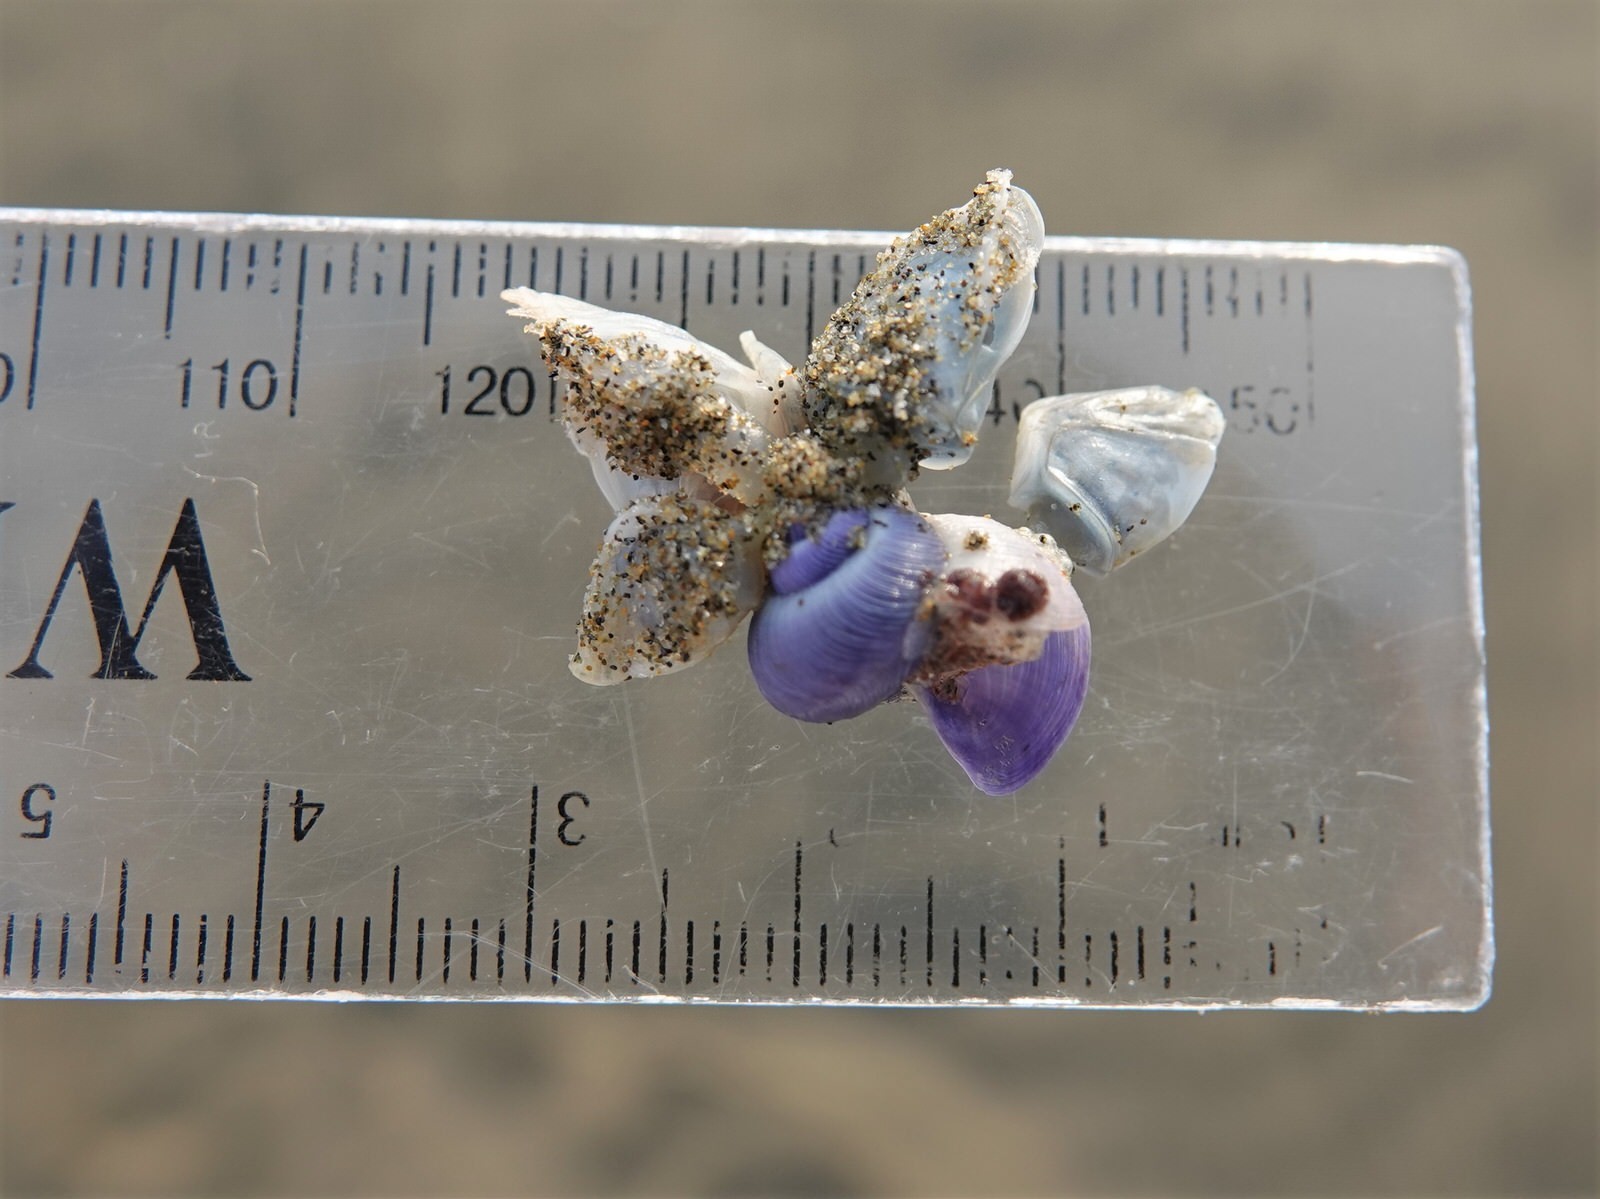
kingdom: Animalia
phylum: Mollusca
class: Gastropoda
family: Epitoniidae
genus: Janthina
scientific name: Janthina exigua
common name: Dwarf janthina
